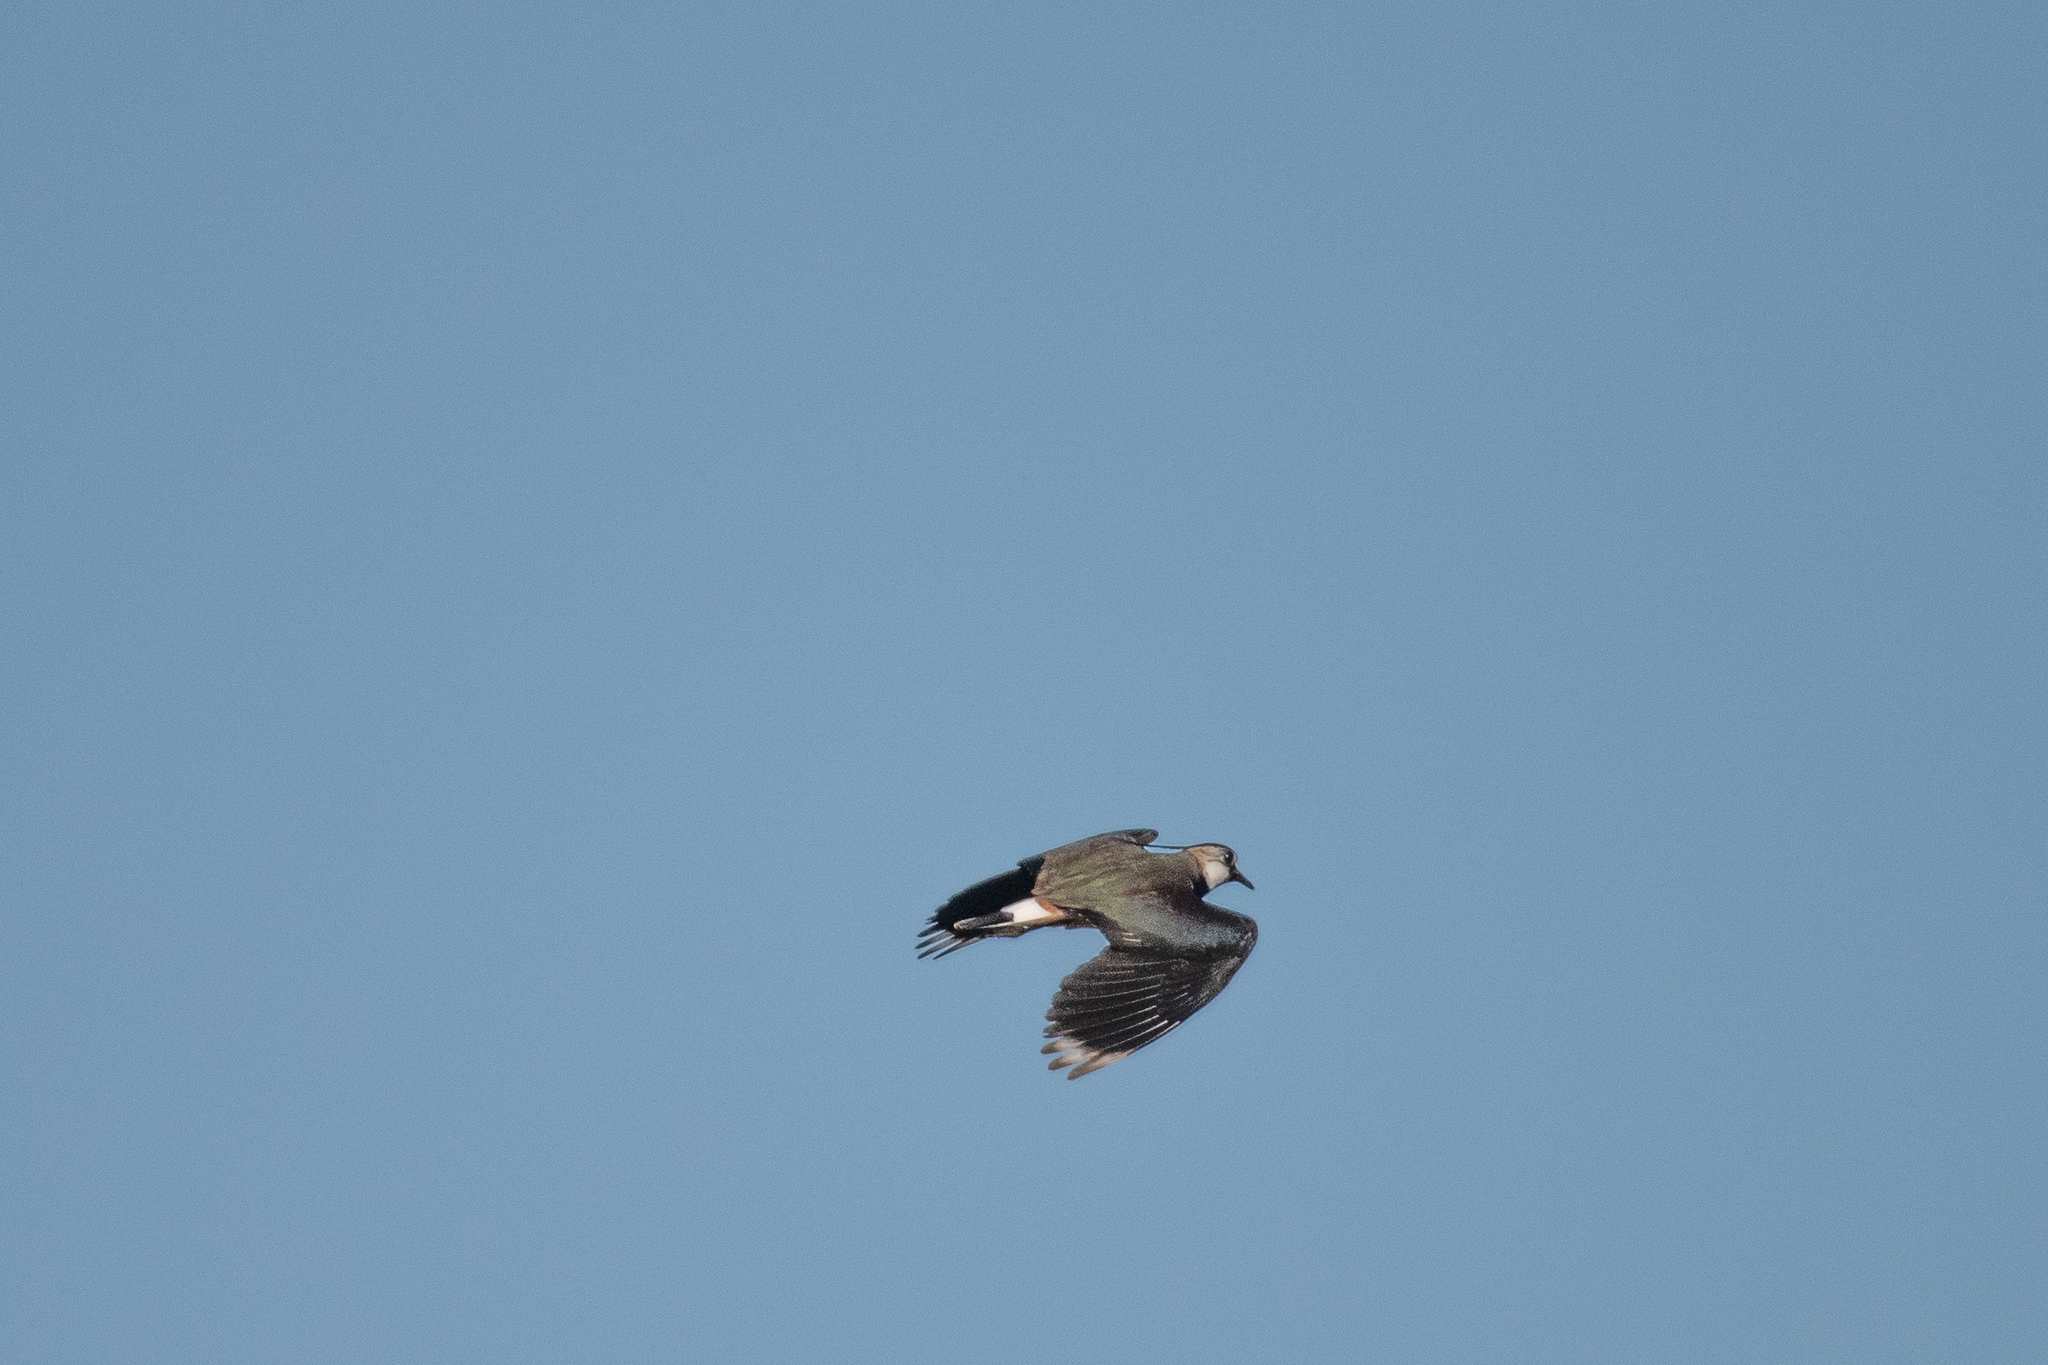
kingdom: Animalia
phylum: Chordata
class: Aves
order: Charadriiformes
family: Charadriidae
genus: Vanellus
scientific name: Vanellus vanellus
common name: Northern lapwing
